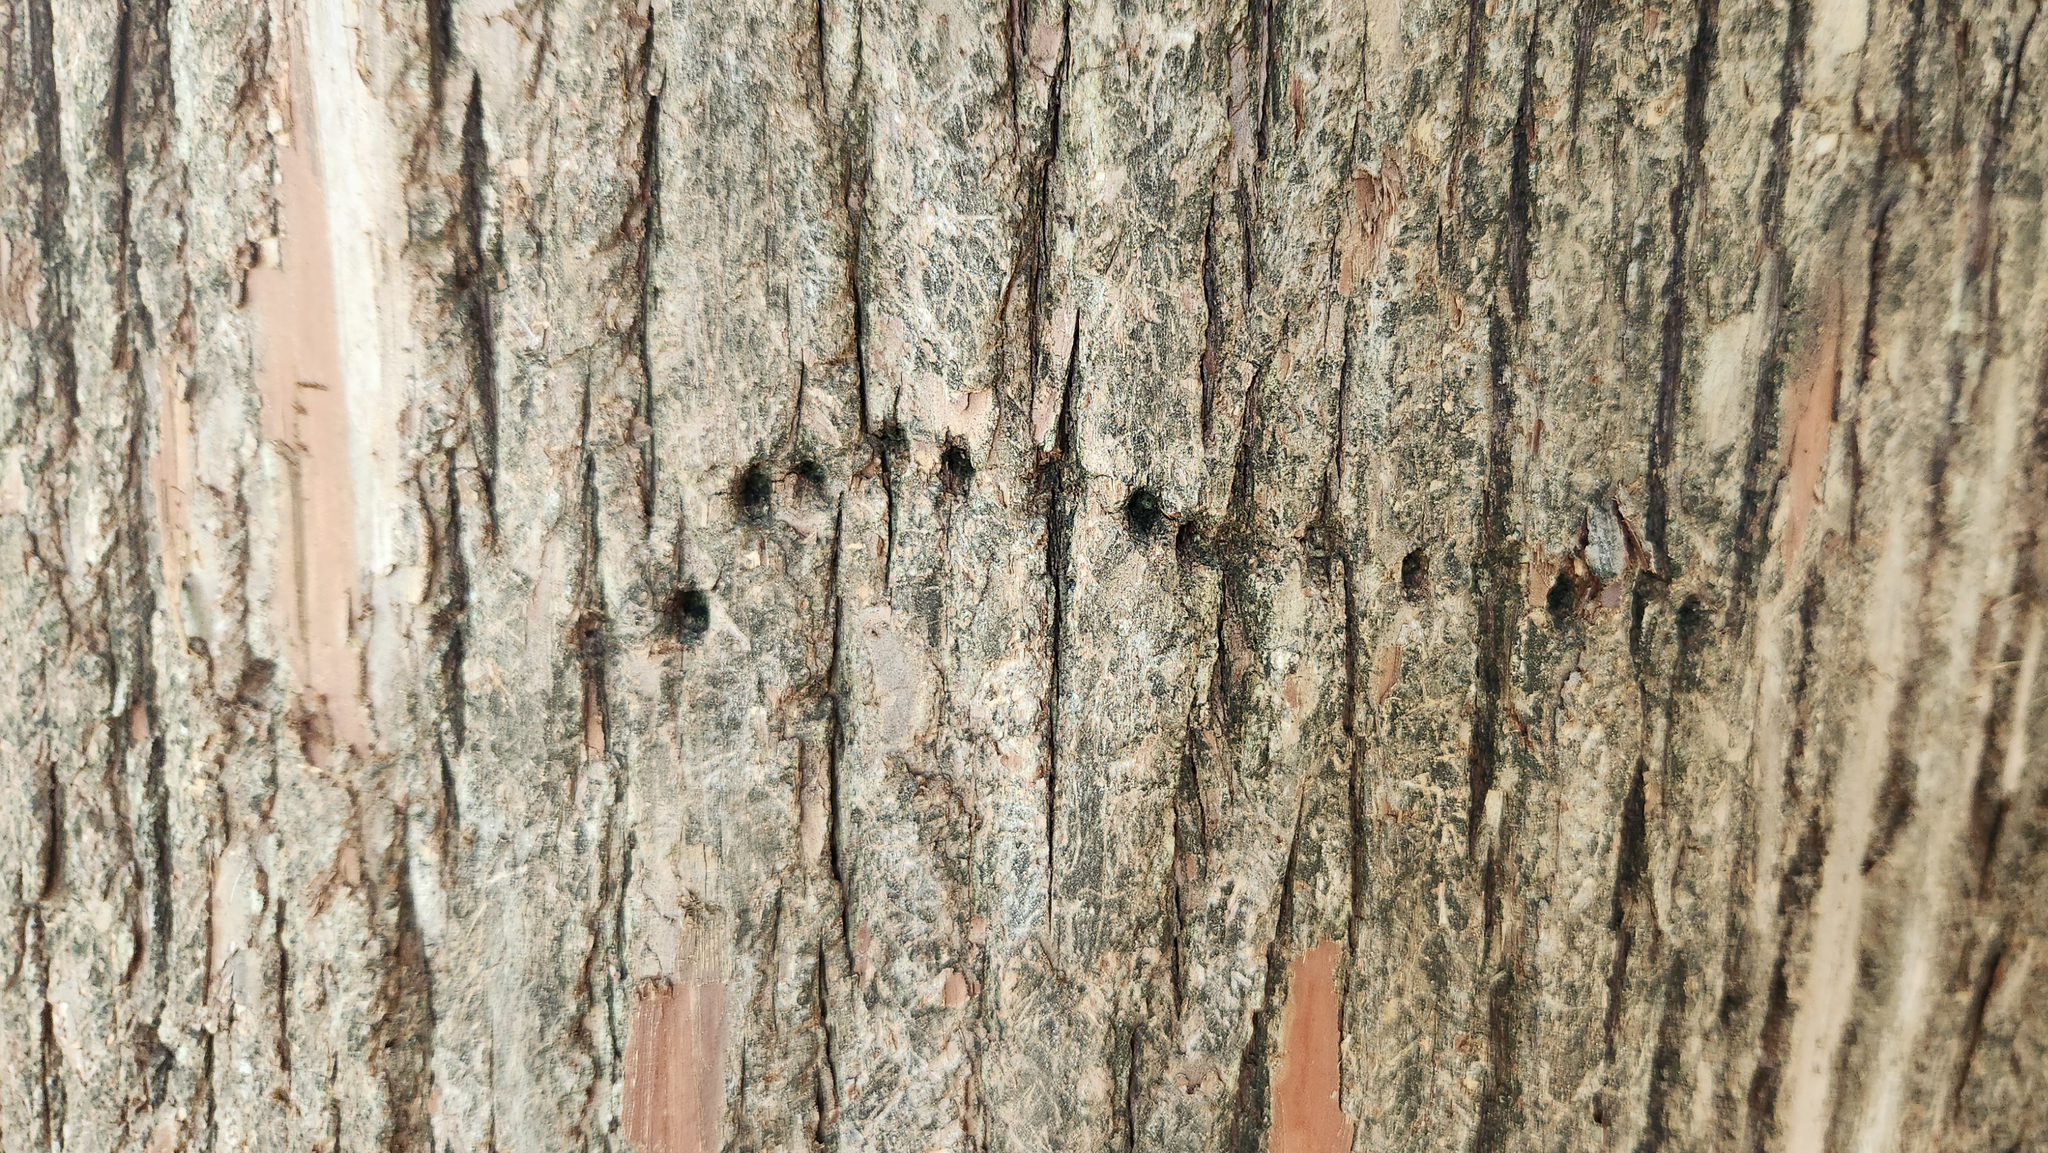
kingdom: Animalia
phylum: Chordata
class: Aves
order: Piciformes
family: Picidae
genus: Sphyrapicus
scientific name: Sphyrapicus varius
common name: Yellow-bellied sapsucker
